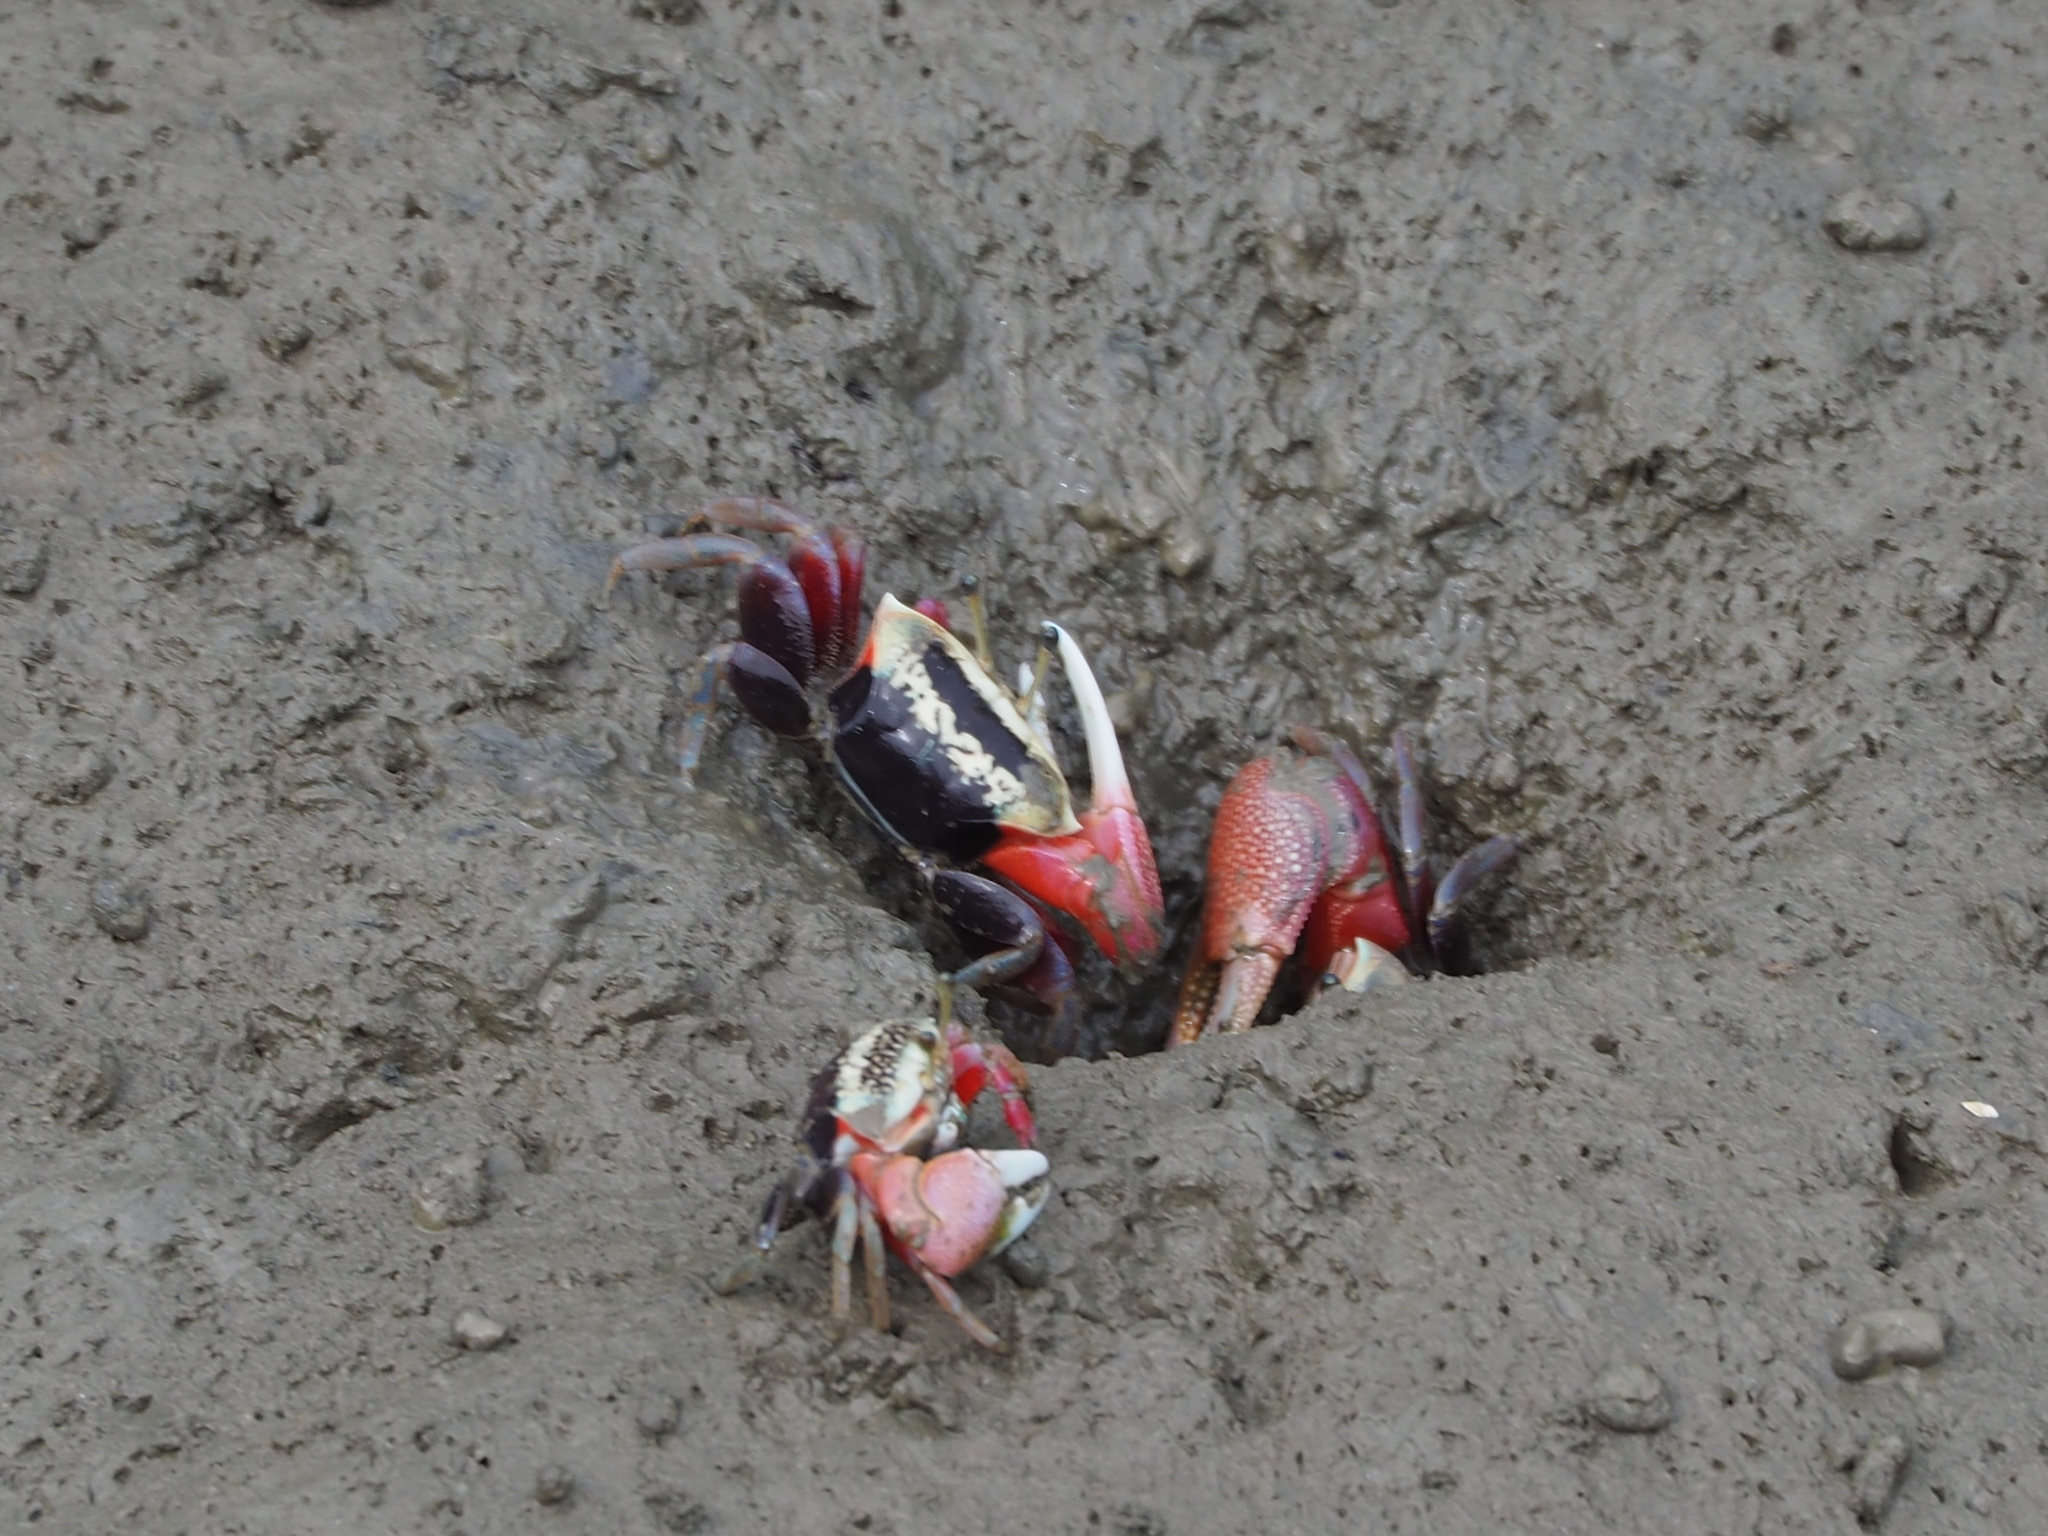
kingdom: Animalia
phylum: Arthropoda
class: Malacostraca
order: Decapoda
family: Ocypodidae
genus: Tubuca
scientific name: Tubuca arcuata
